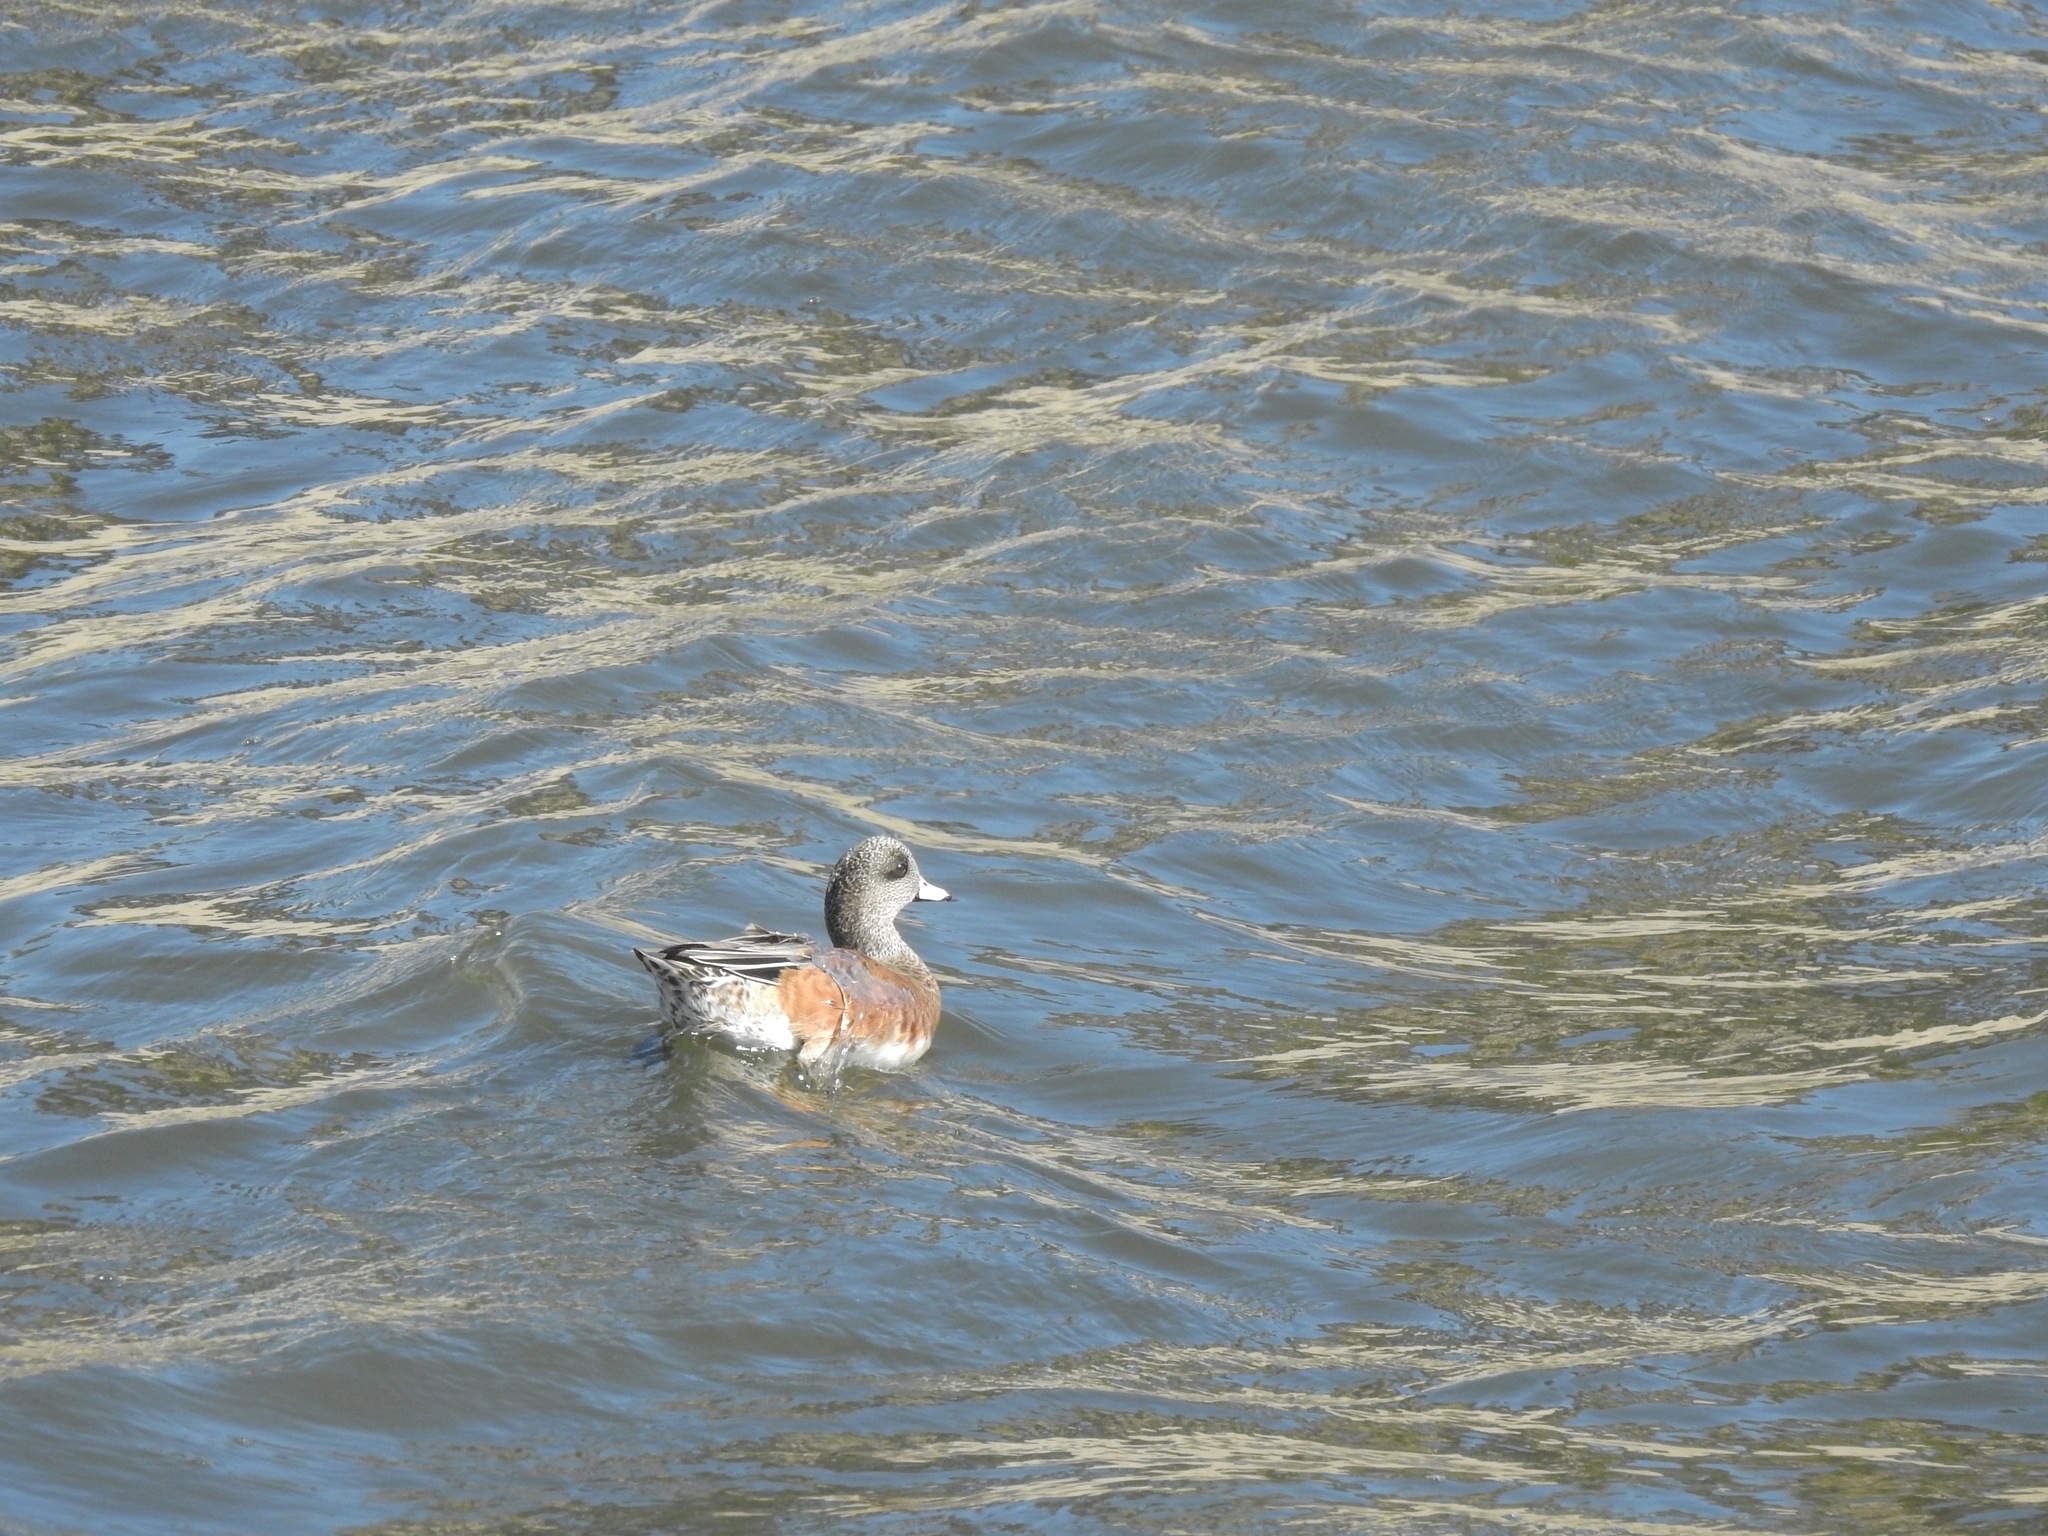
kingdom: Animalia
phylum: Chordata
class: Aves
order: Anseriformes
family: Anatidae
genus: Mareca
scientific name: Mareca americana
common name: American wigeon
